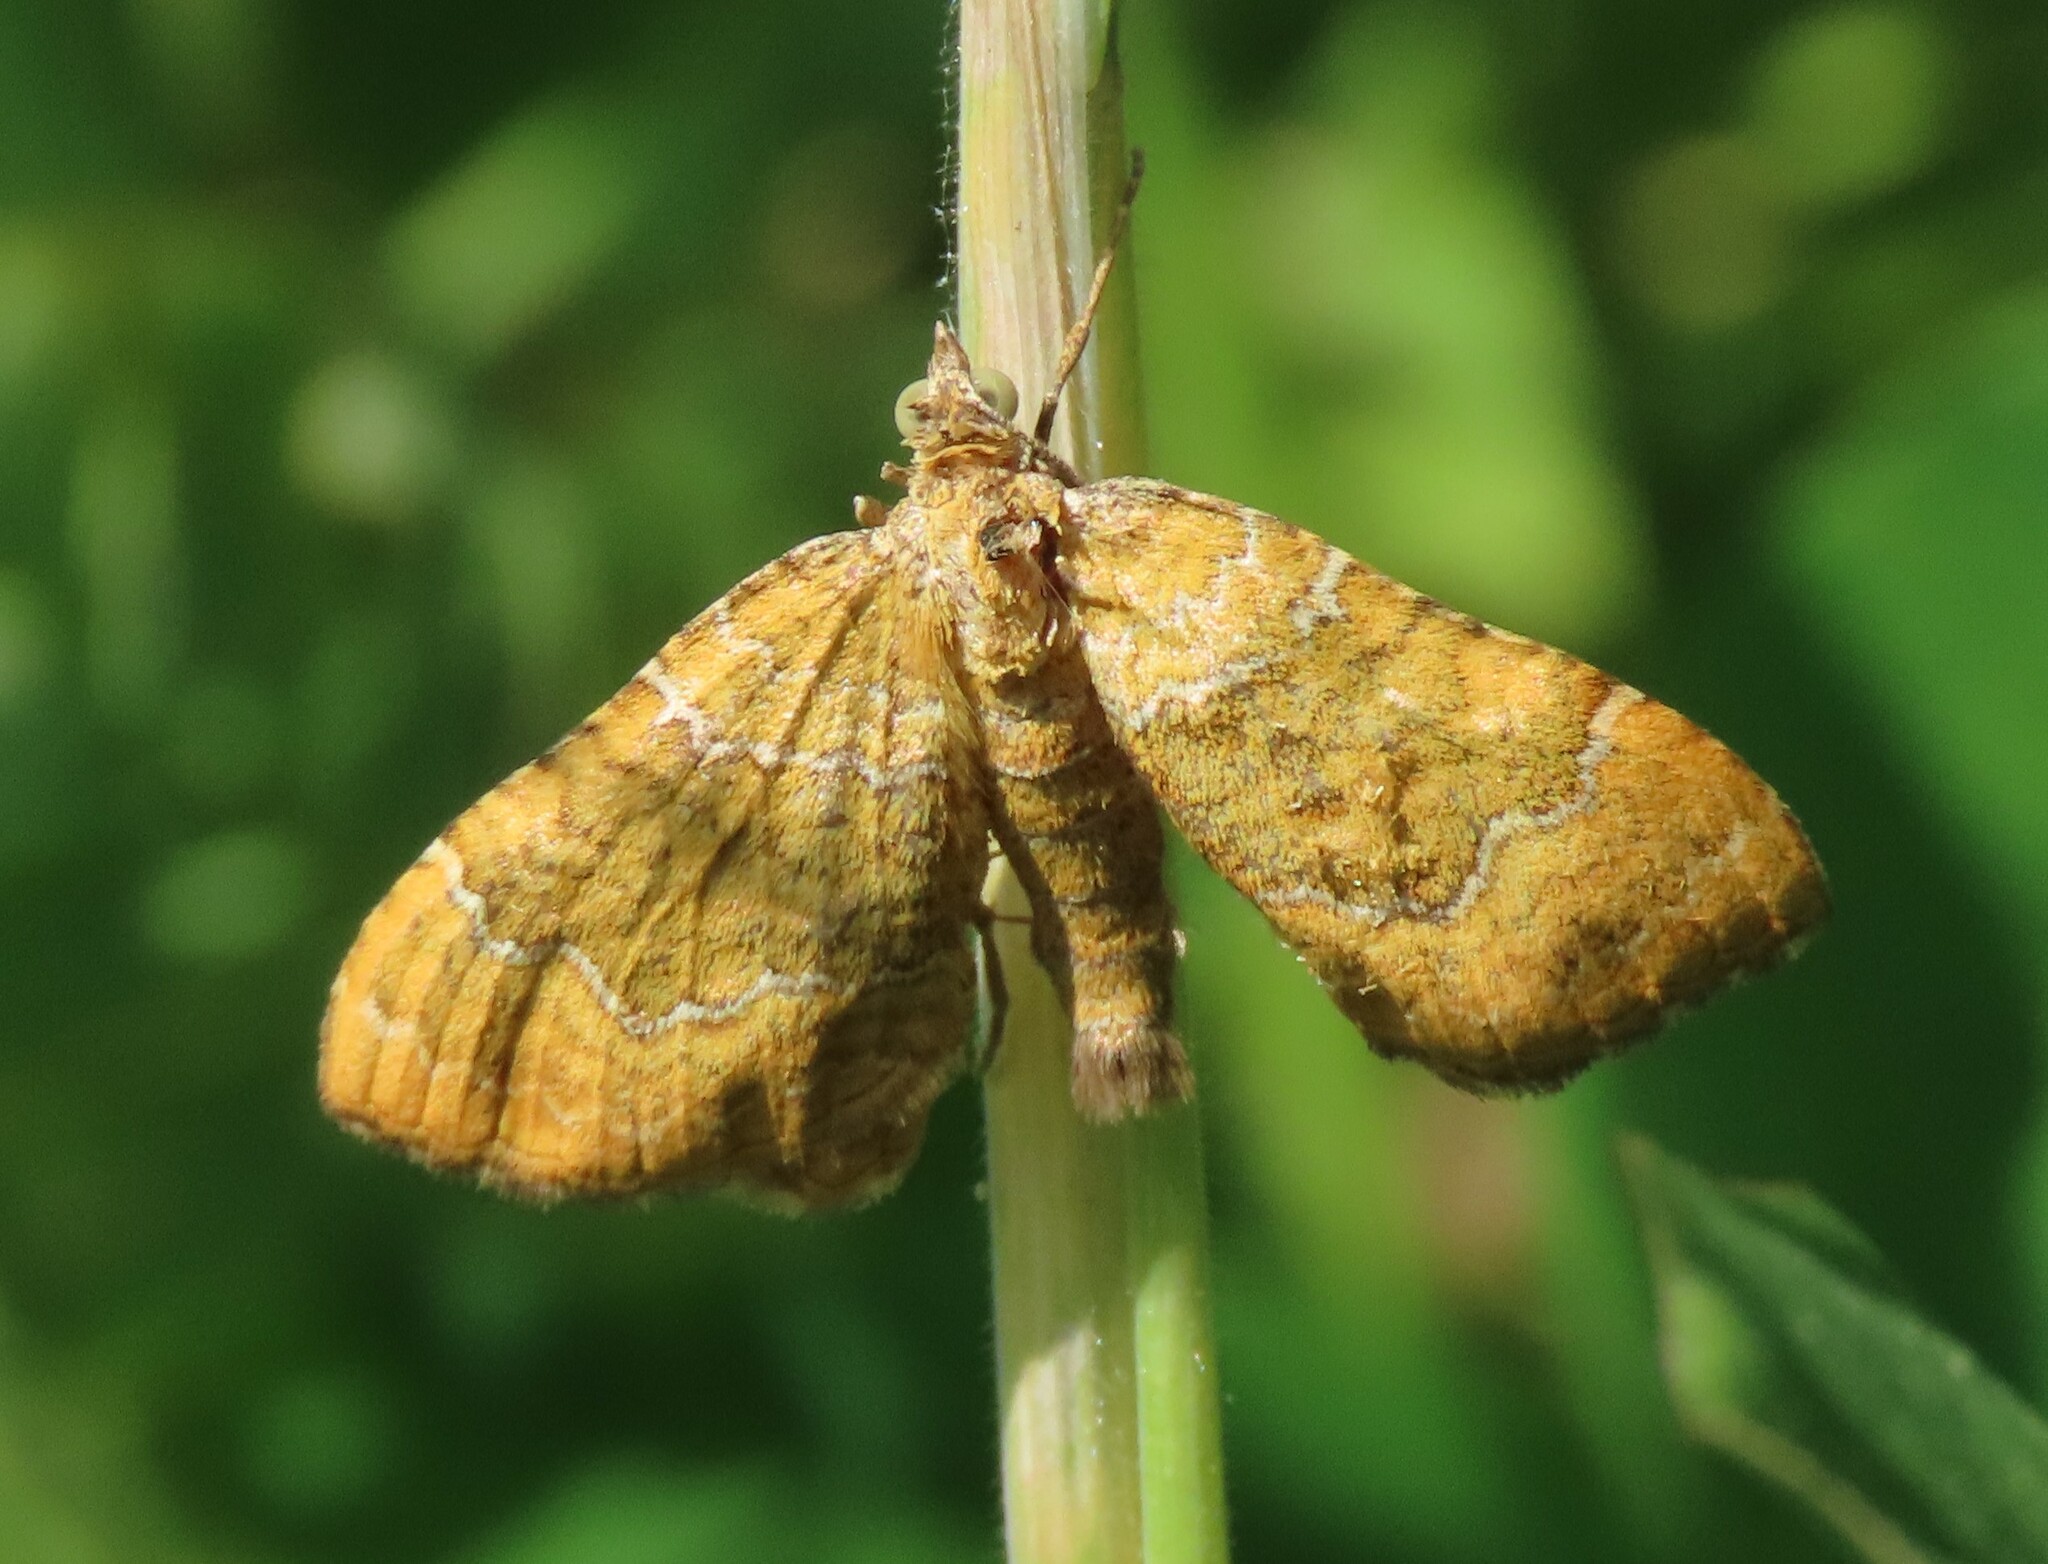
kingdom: Animalia
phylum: Arthropoda
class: Insecta
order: Lepidoptera
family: Geometridae
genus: Camptogramma
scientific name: Camptogramma bilineata
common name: Yellow shell
